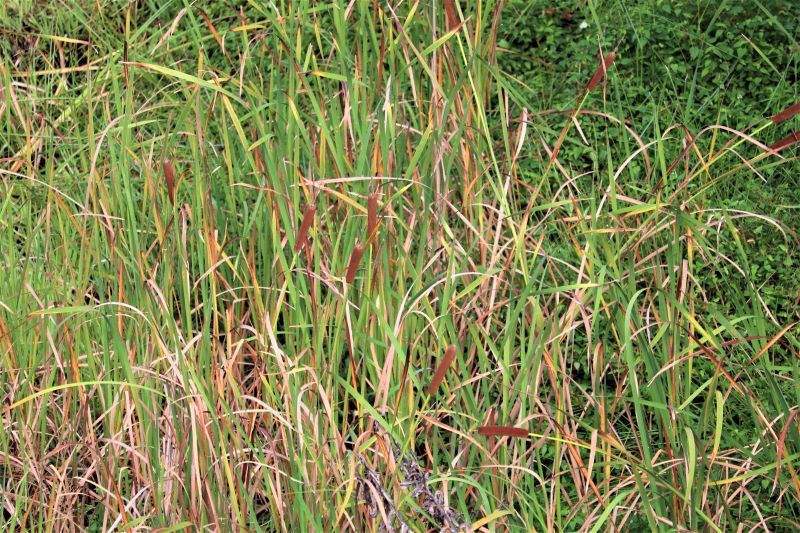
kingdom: Plantae
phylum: Tracheophyta
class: Liliopsida
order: Poales
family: Typhaceae
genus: Typha
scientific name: Typha capensis
